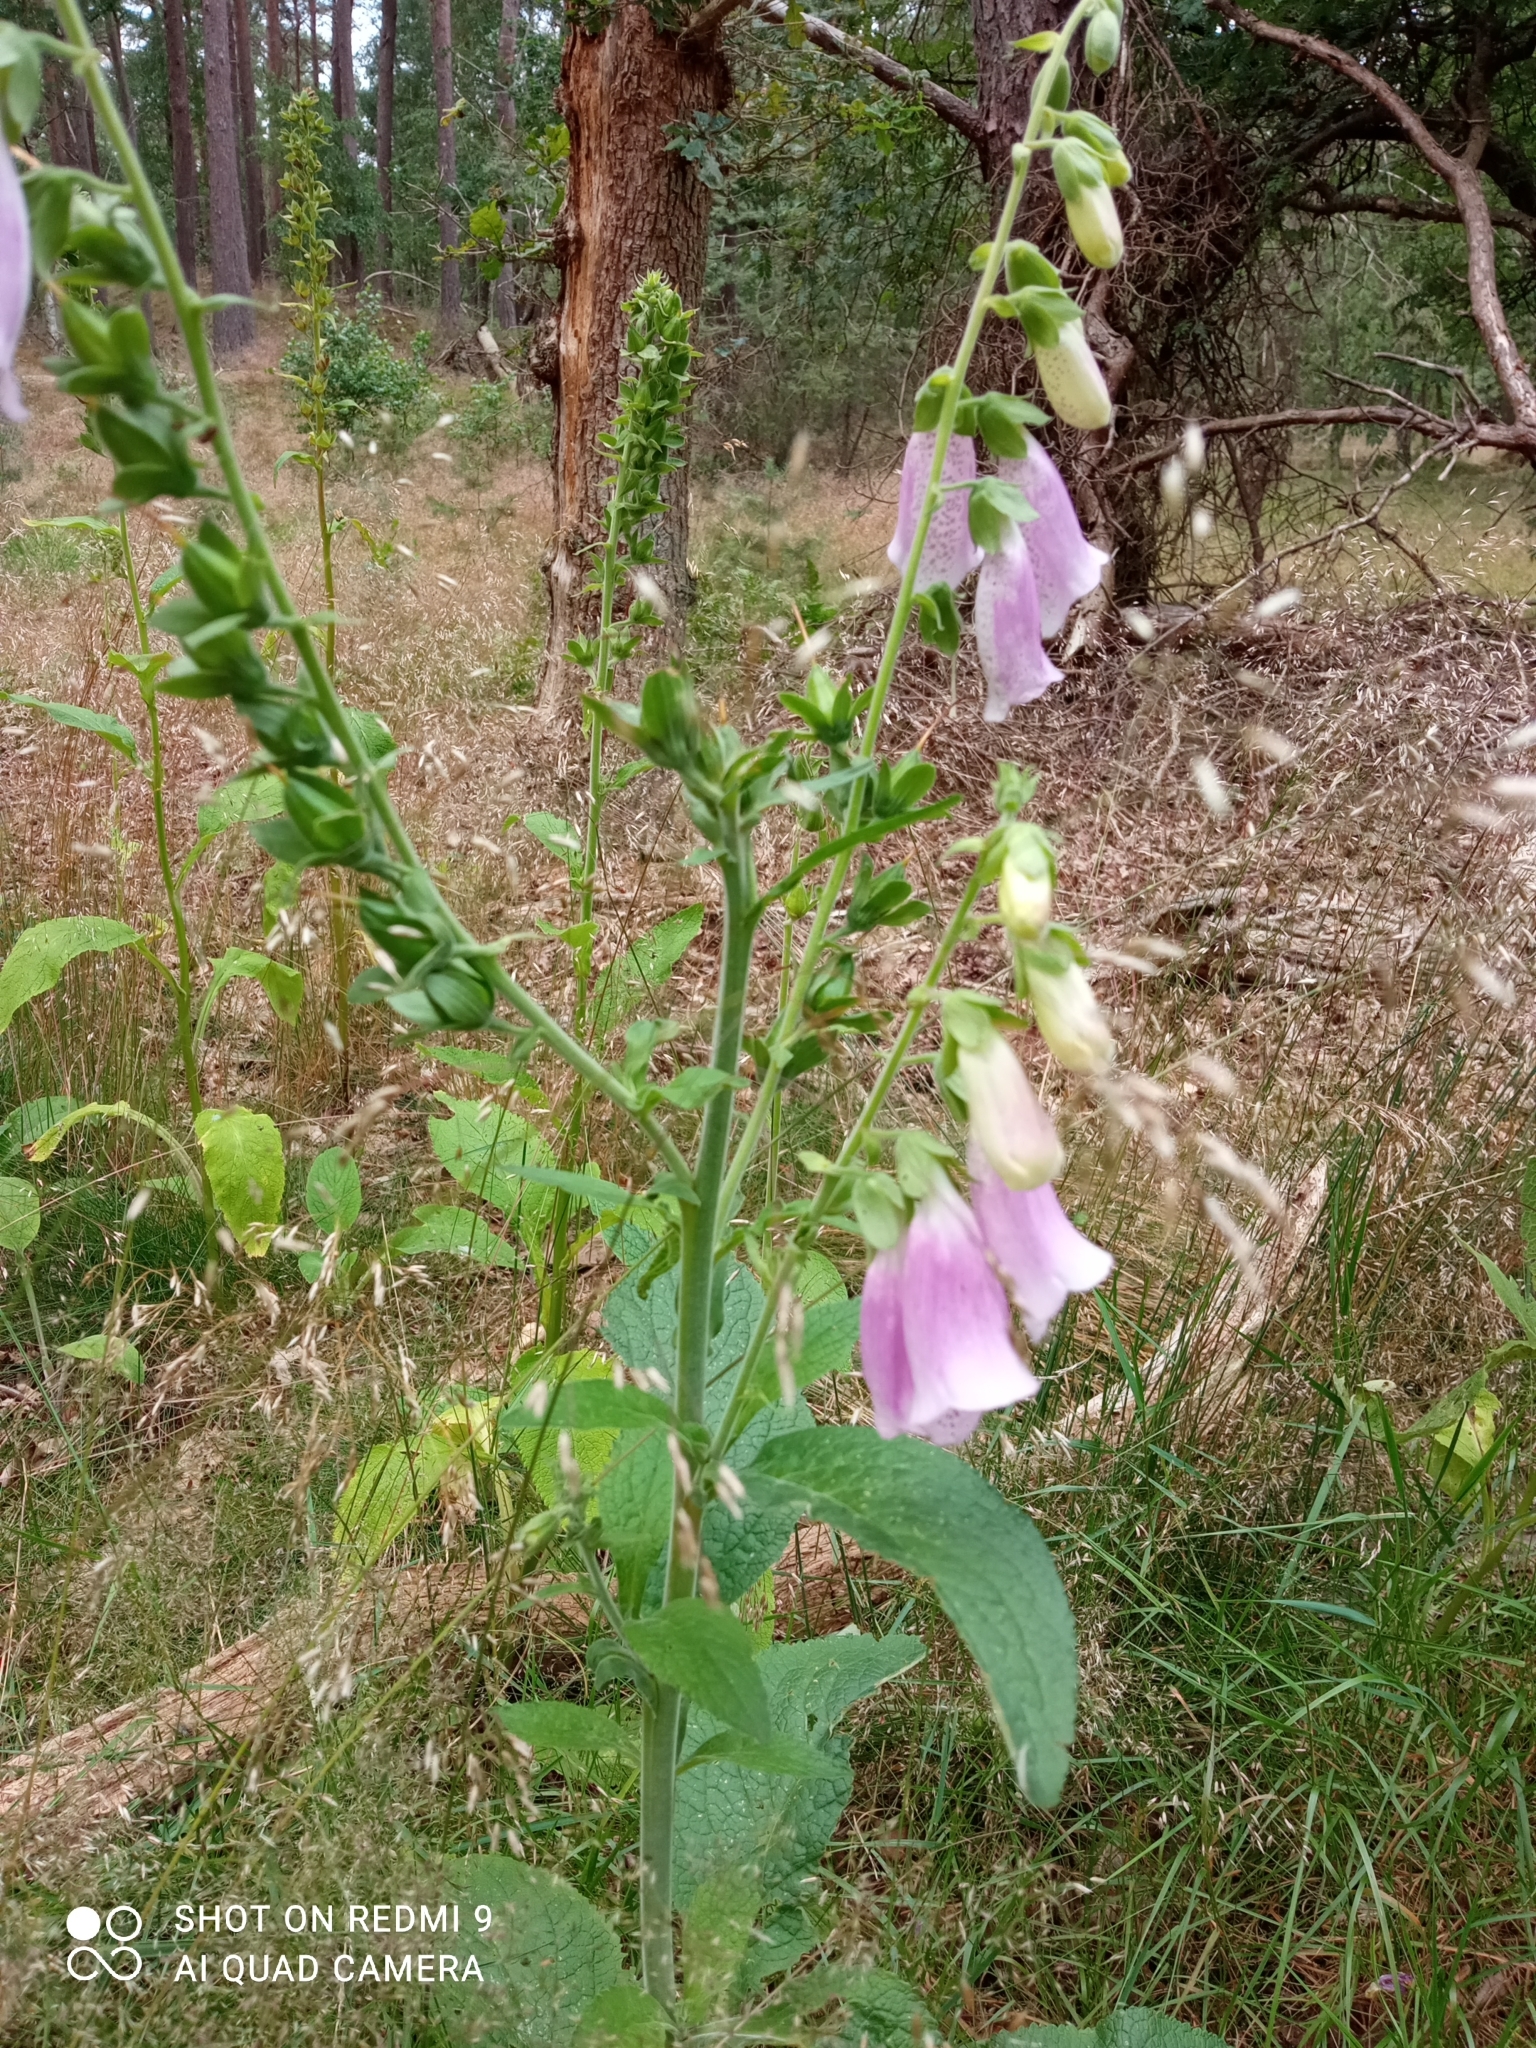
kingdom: Plantae
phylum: Tracheophyta
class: Magnoliopsida
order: Lamiales
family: Plantaginaceae
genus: Digitalis
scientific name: Digitalis purpurea
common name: Foxglove
